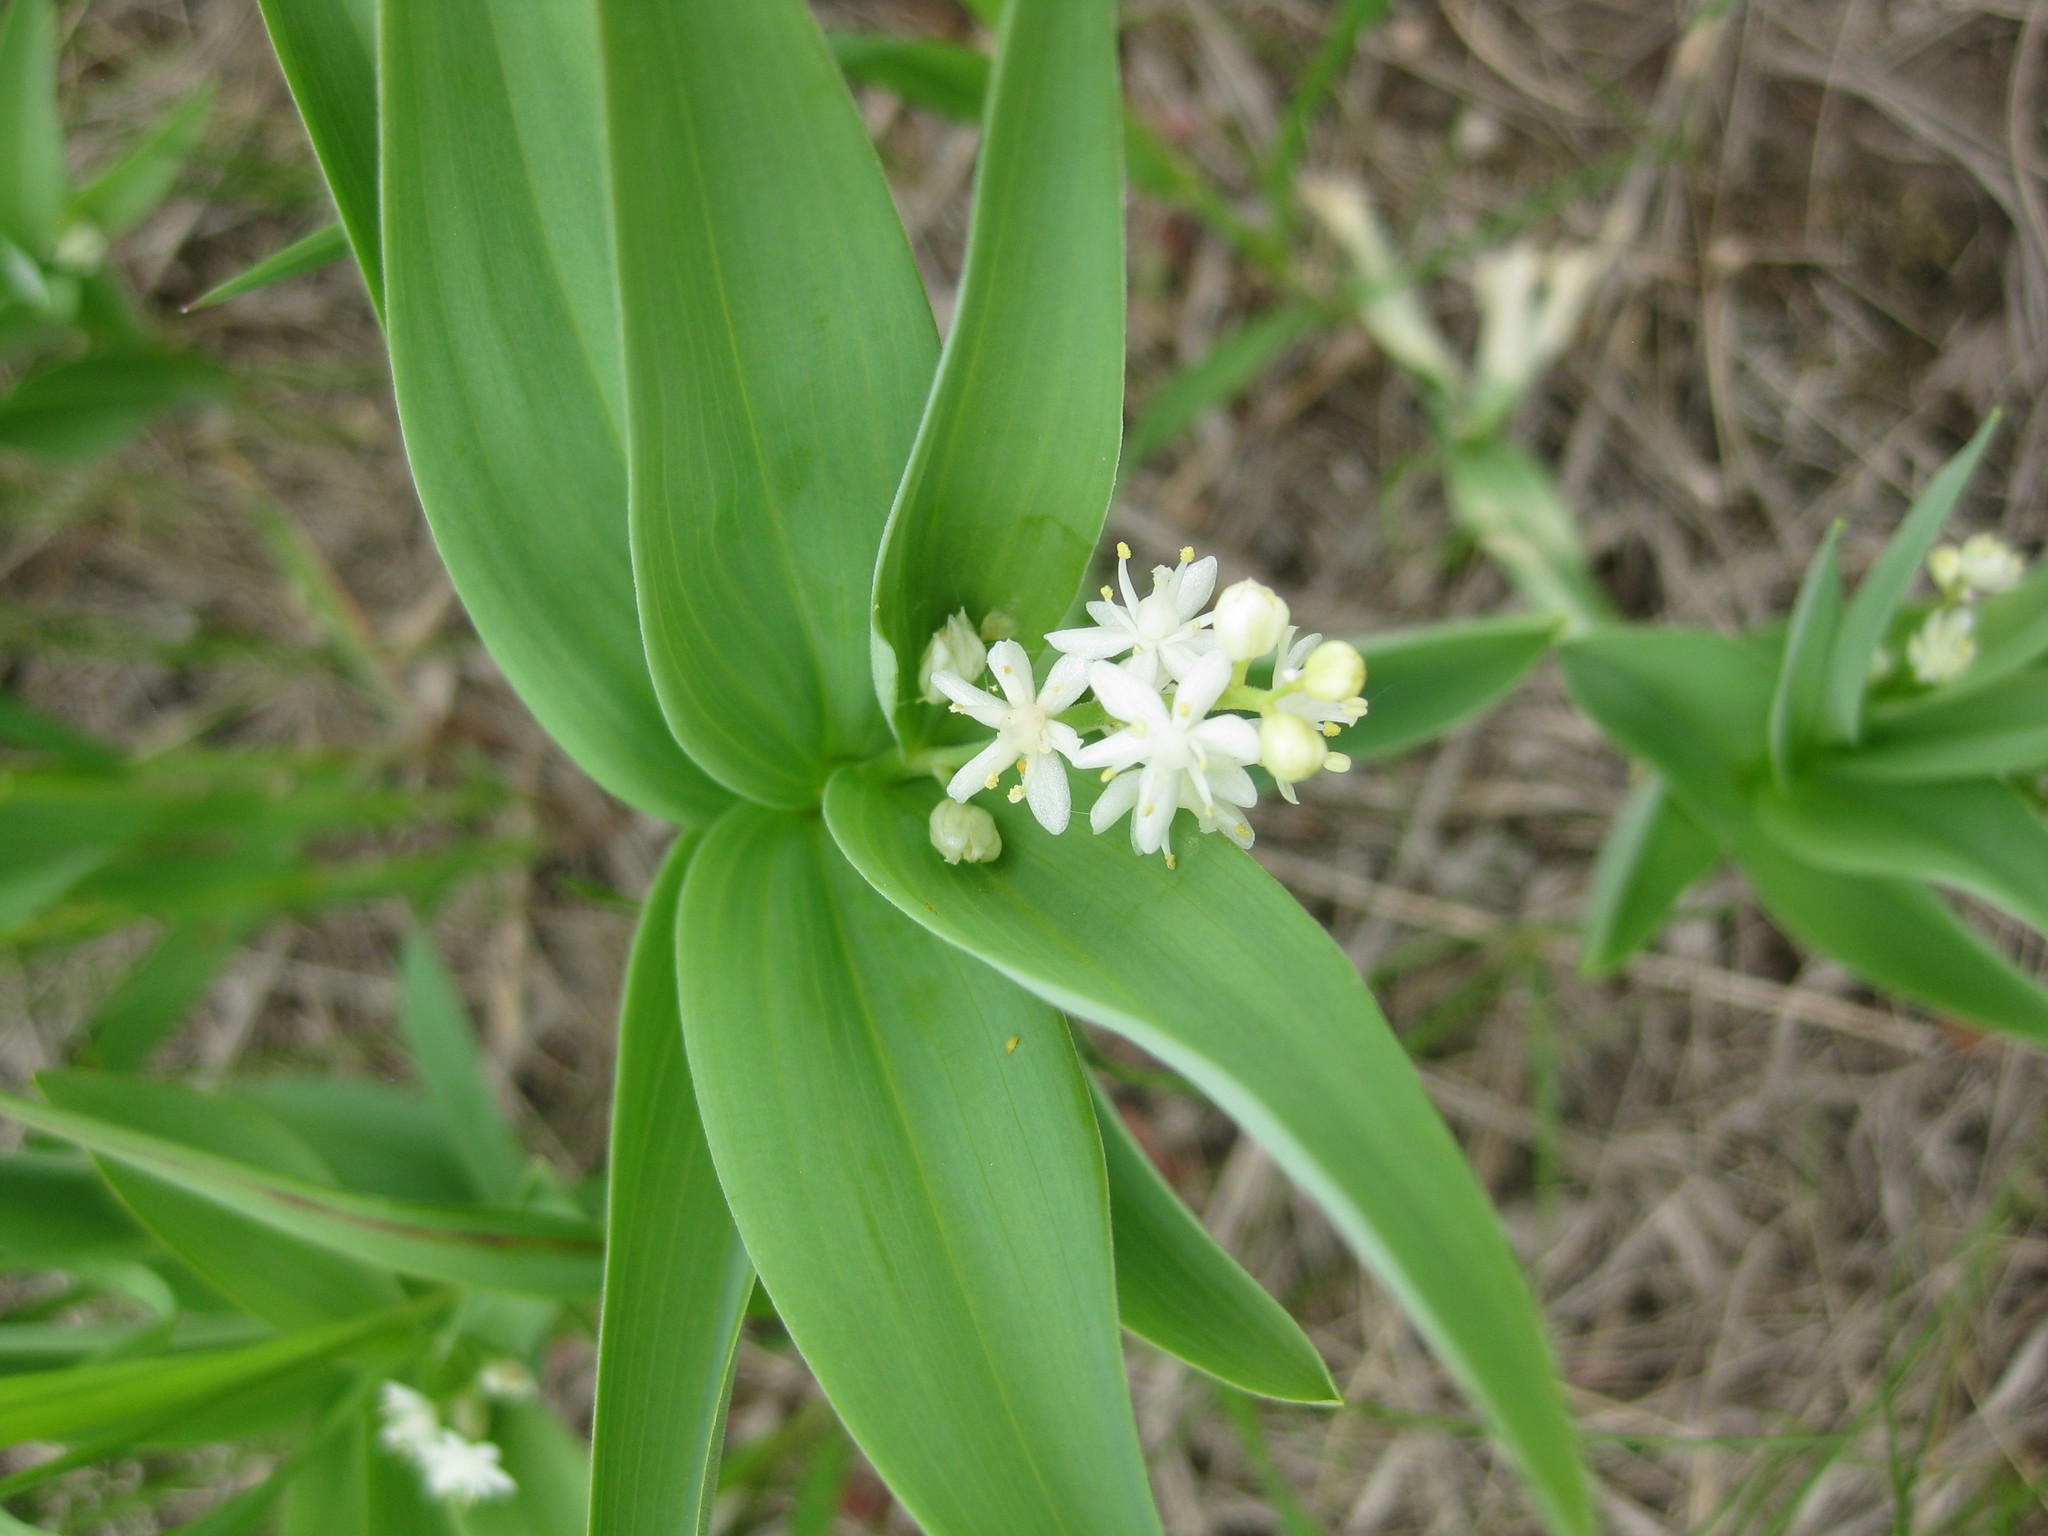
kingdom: Plantae
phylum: Tracheophyta
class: Liliopsida
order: Asparagales
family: Asparagaceae
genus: Maianthemum
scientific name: Maianthemum stellatum
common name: Little false solomon's seal
